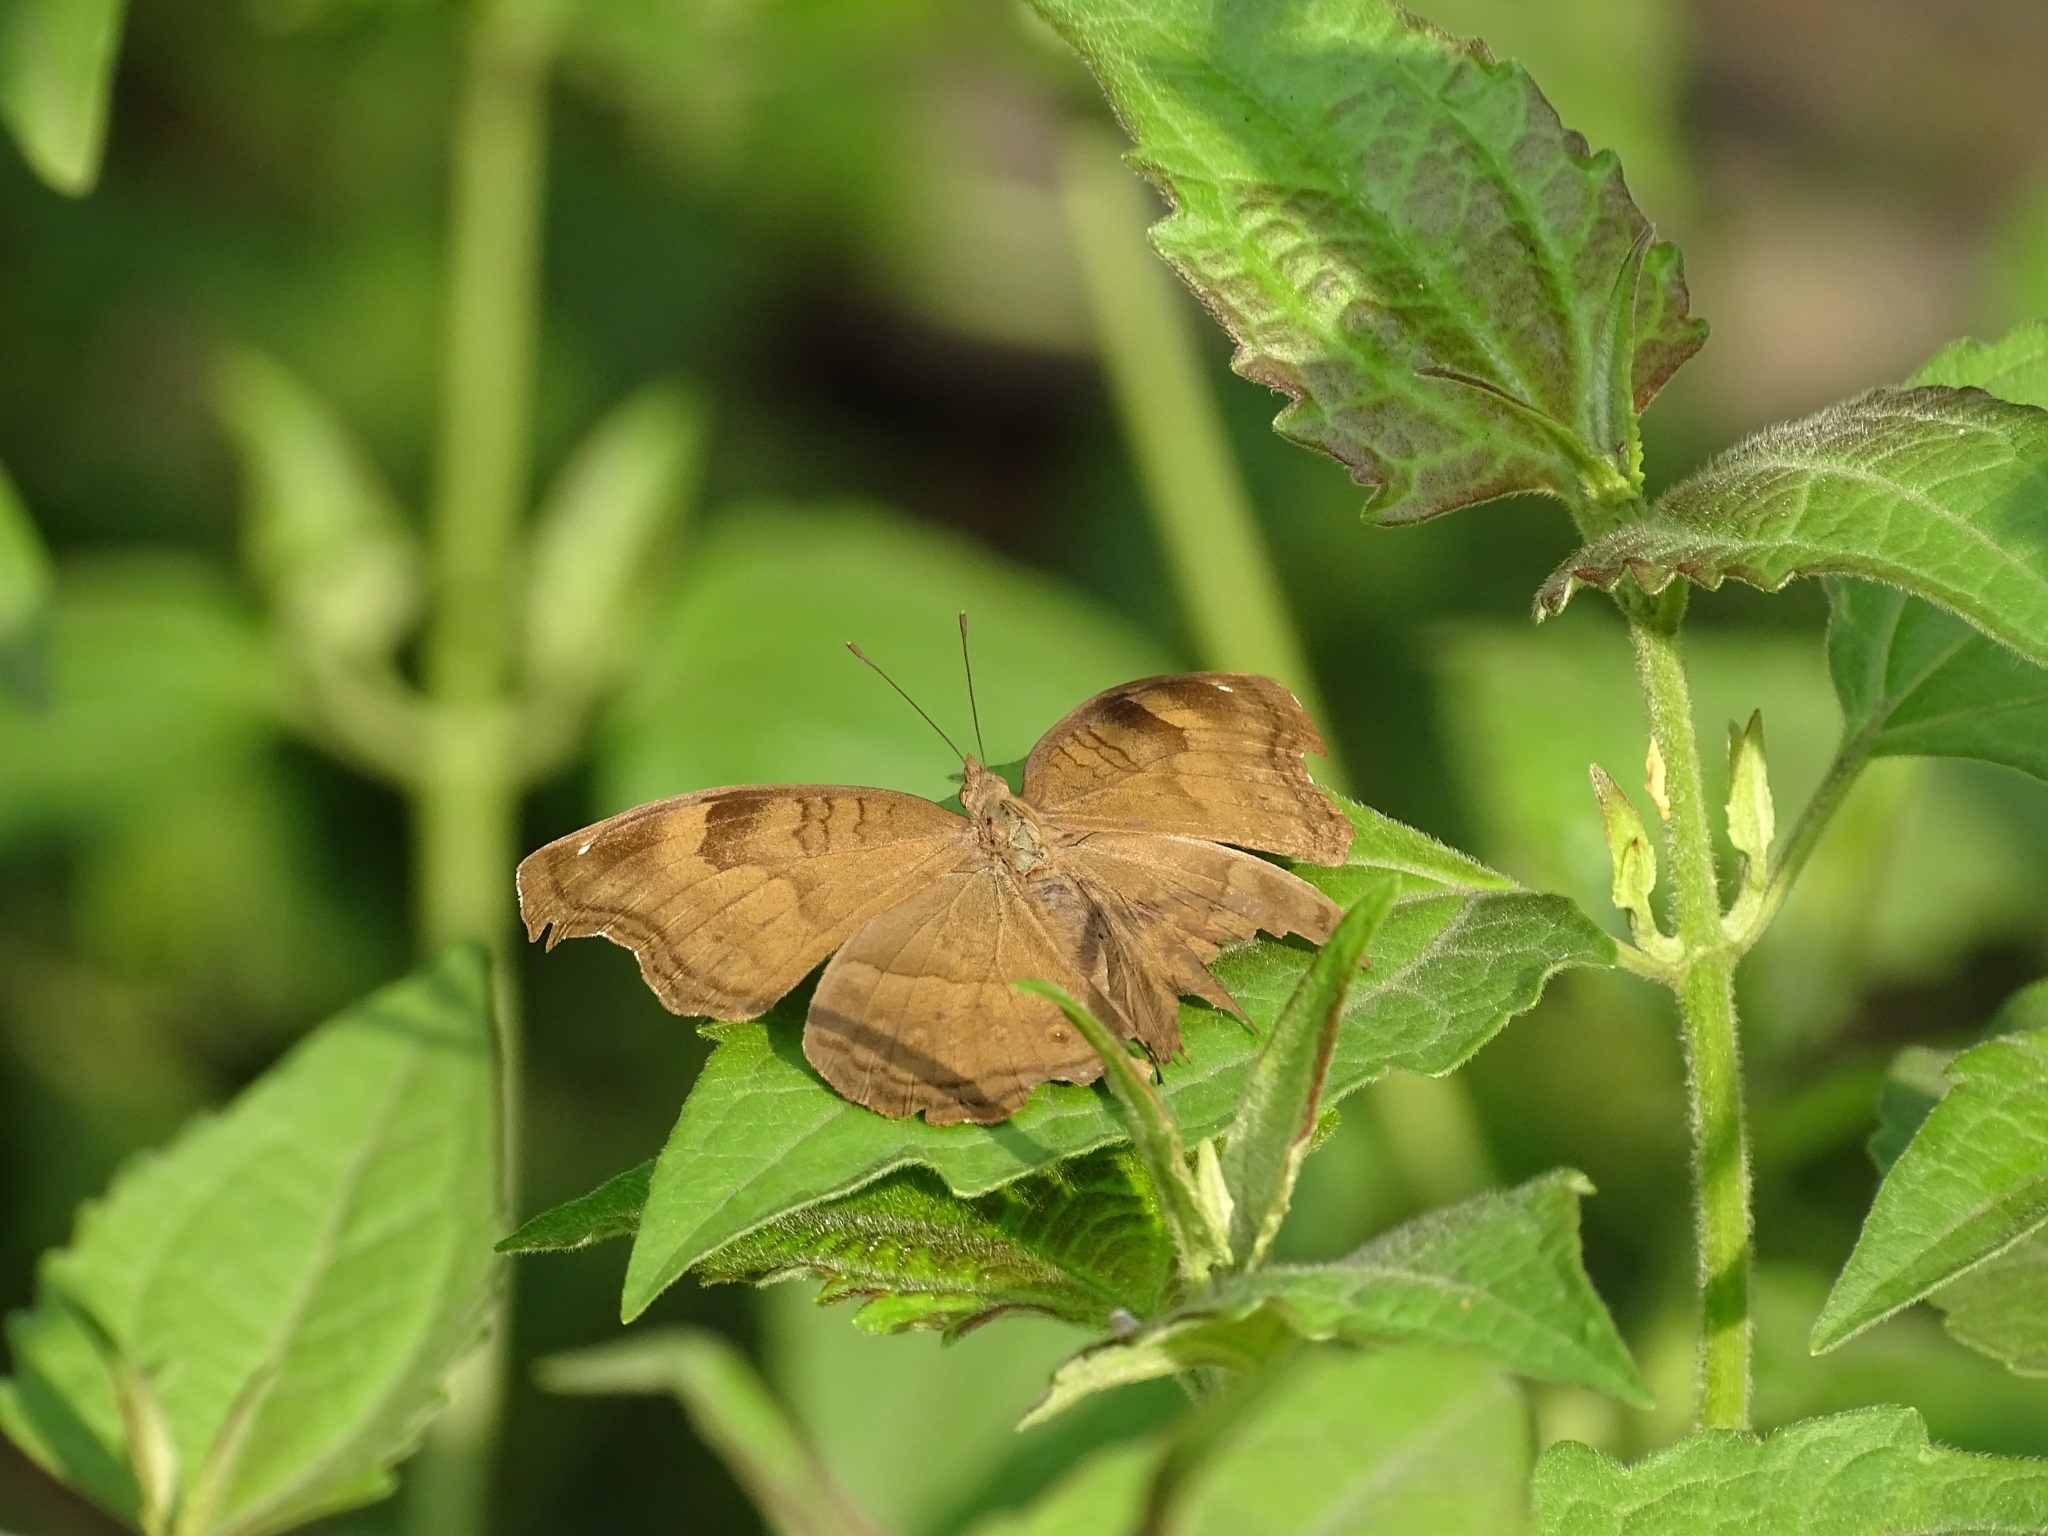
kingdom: Animalia
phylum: Arthropoda
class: Insecta
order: Lepidoptera
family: Nymphalidae
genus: Junonia
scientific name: Junonia iphita
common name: Chocolate pansy
